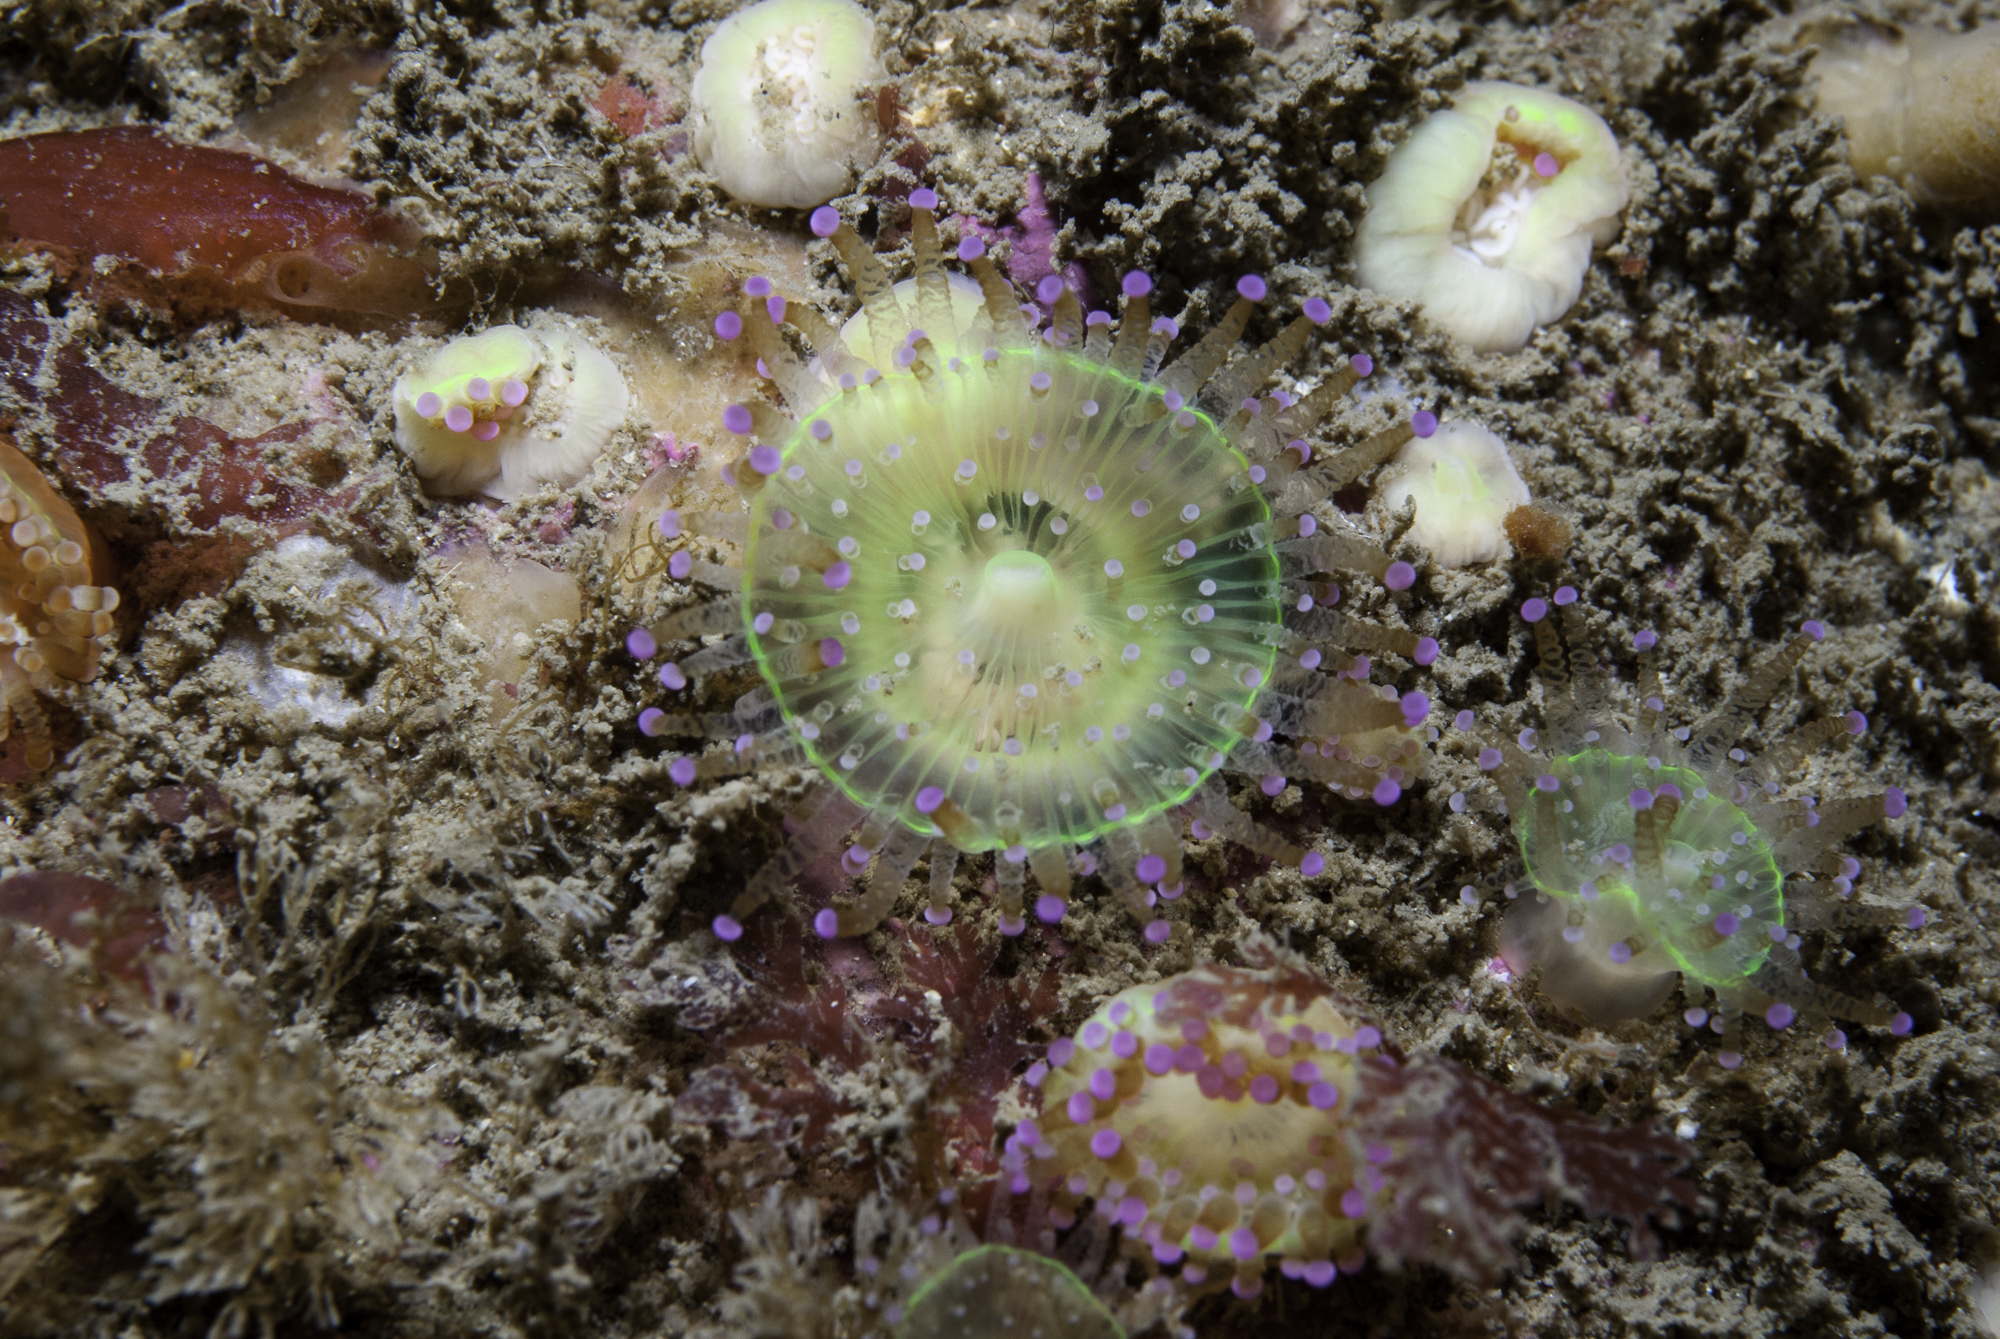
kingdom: Animalia
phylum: Cnidaria
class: Anthozoa
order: Corallimorpharia
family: Corallimorphidae
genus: Corynactis
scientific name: Corynactis viridis
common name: Jewel anemone
